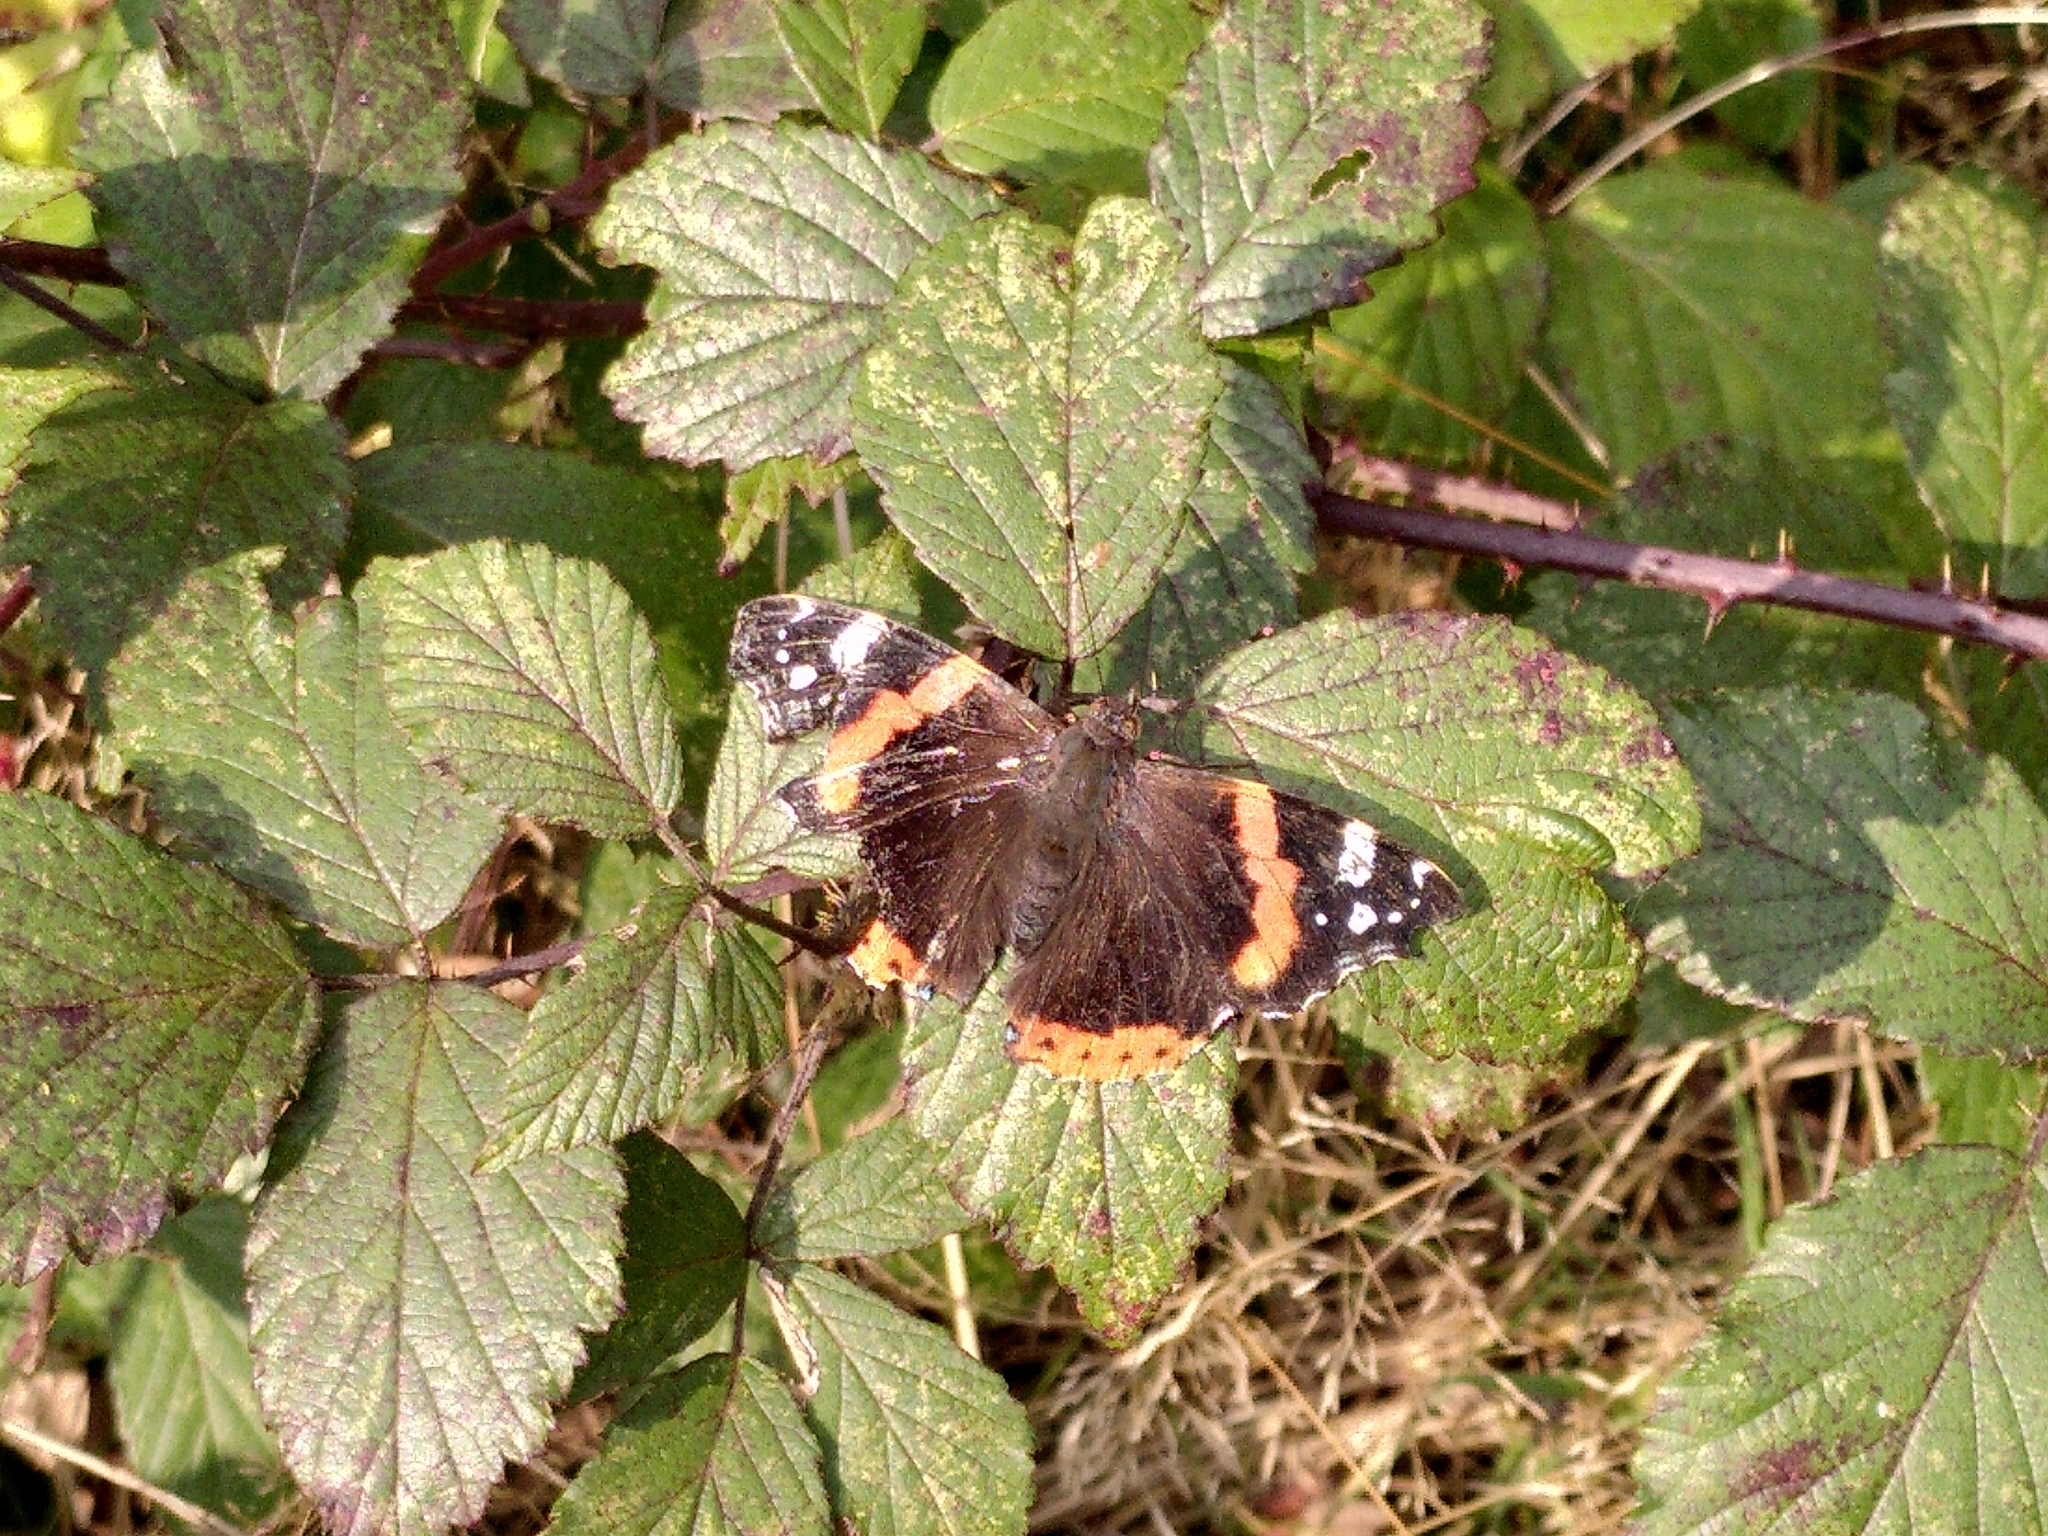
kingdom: Animalia
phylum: Arthropoda
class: Insecta
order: Lepidoptera
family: Nymphalidae
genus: Vanessa
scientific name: Vanessa atalanta
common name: Red admiral
